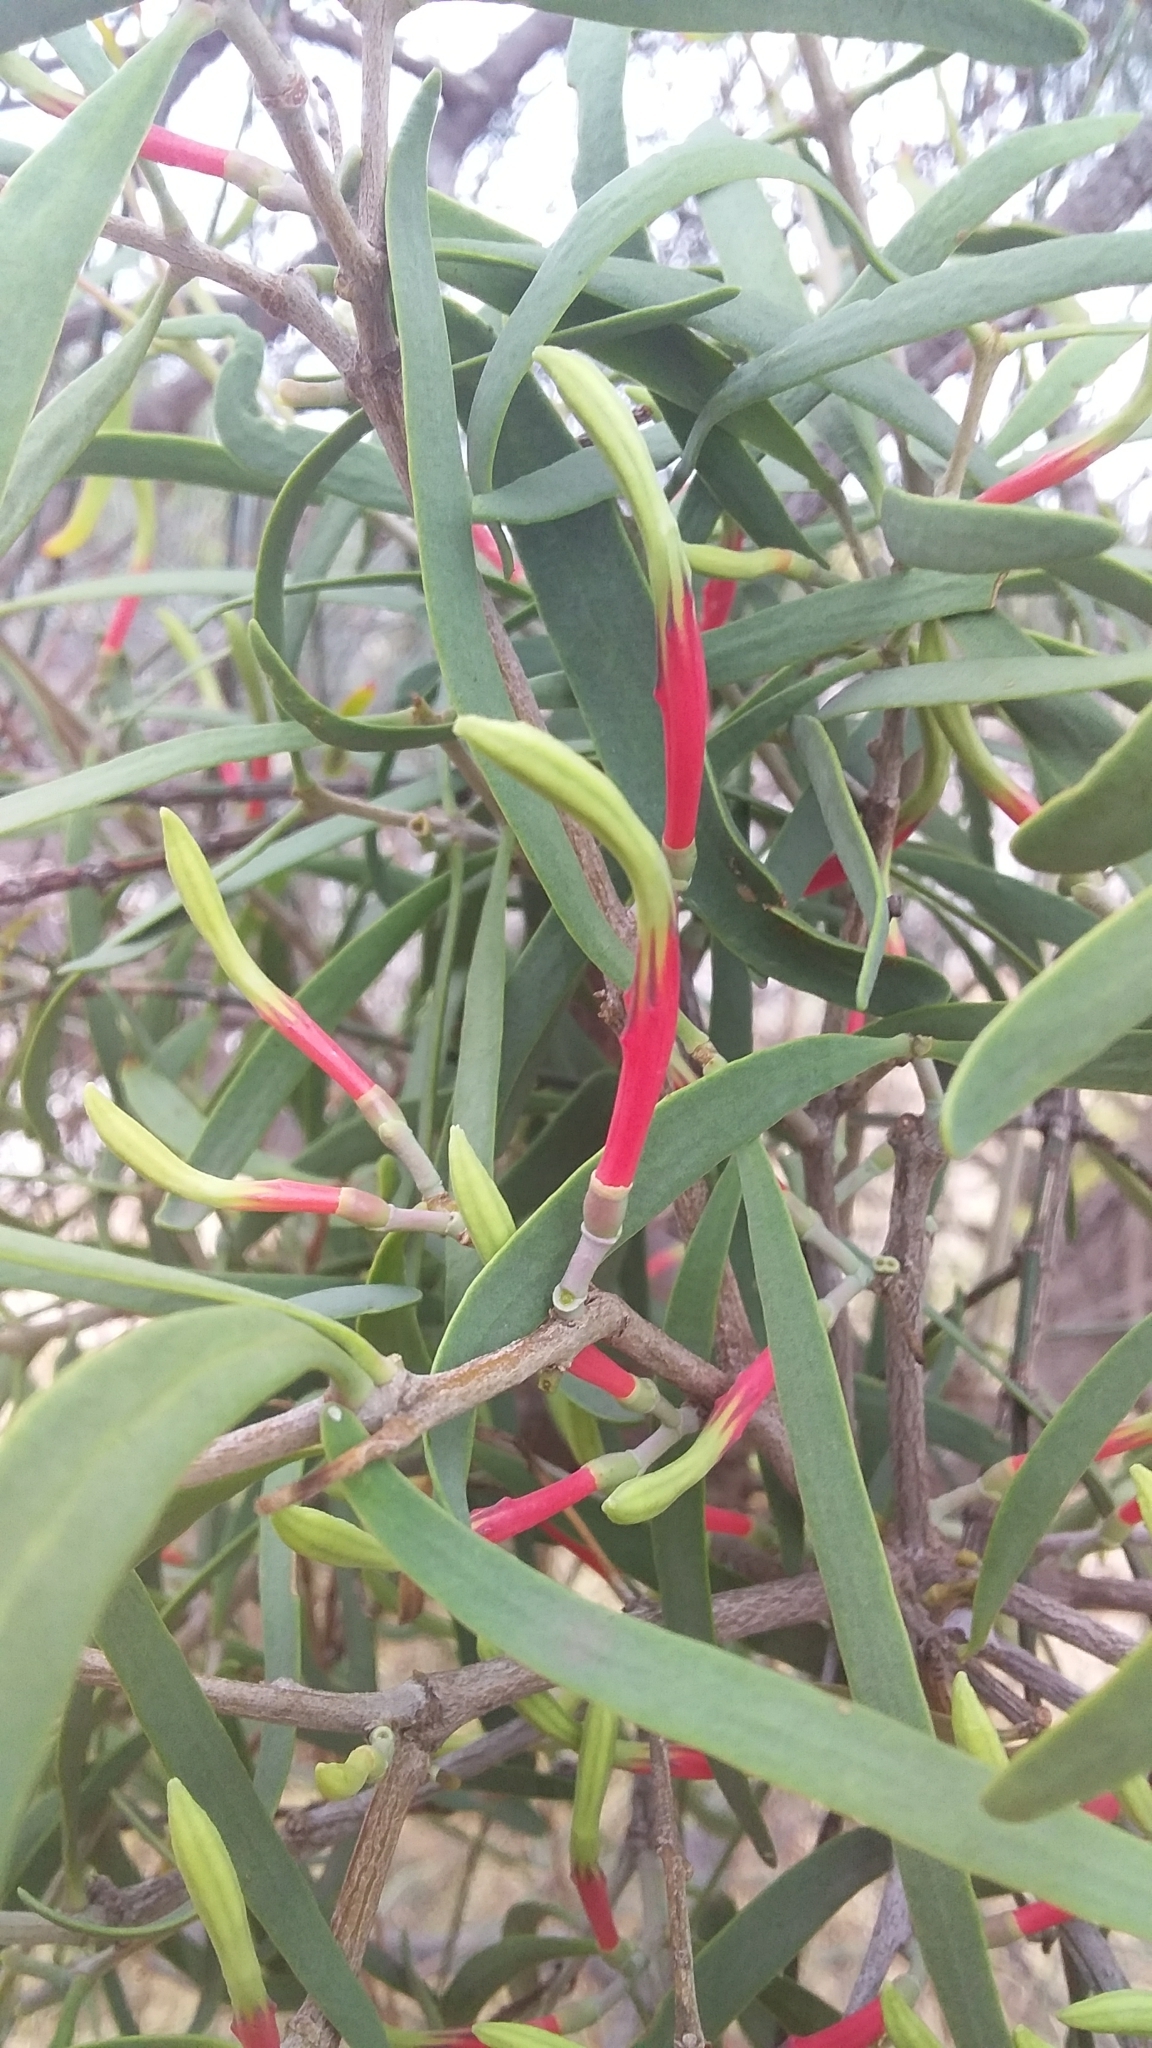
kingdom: Plantae
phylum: Tracheophyta
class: Magnoliopsida
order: Santalales
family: Loranthaceae
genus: Lysiana
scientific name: Lysiana exocarpi
